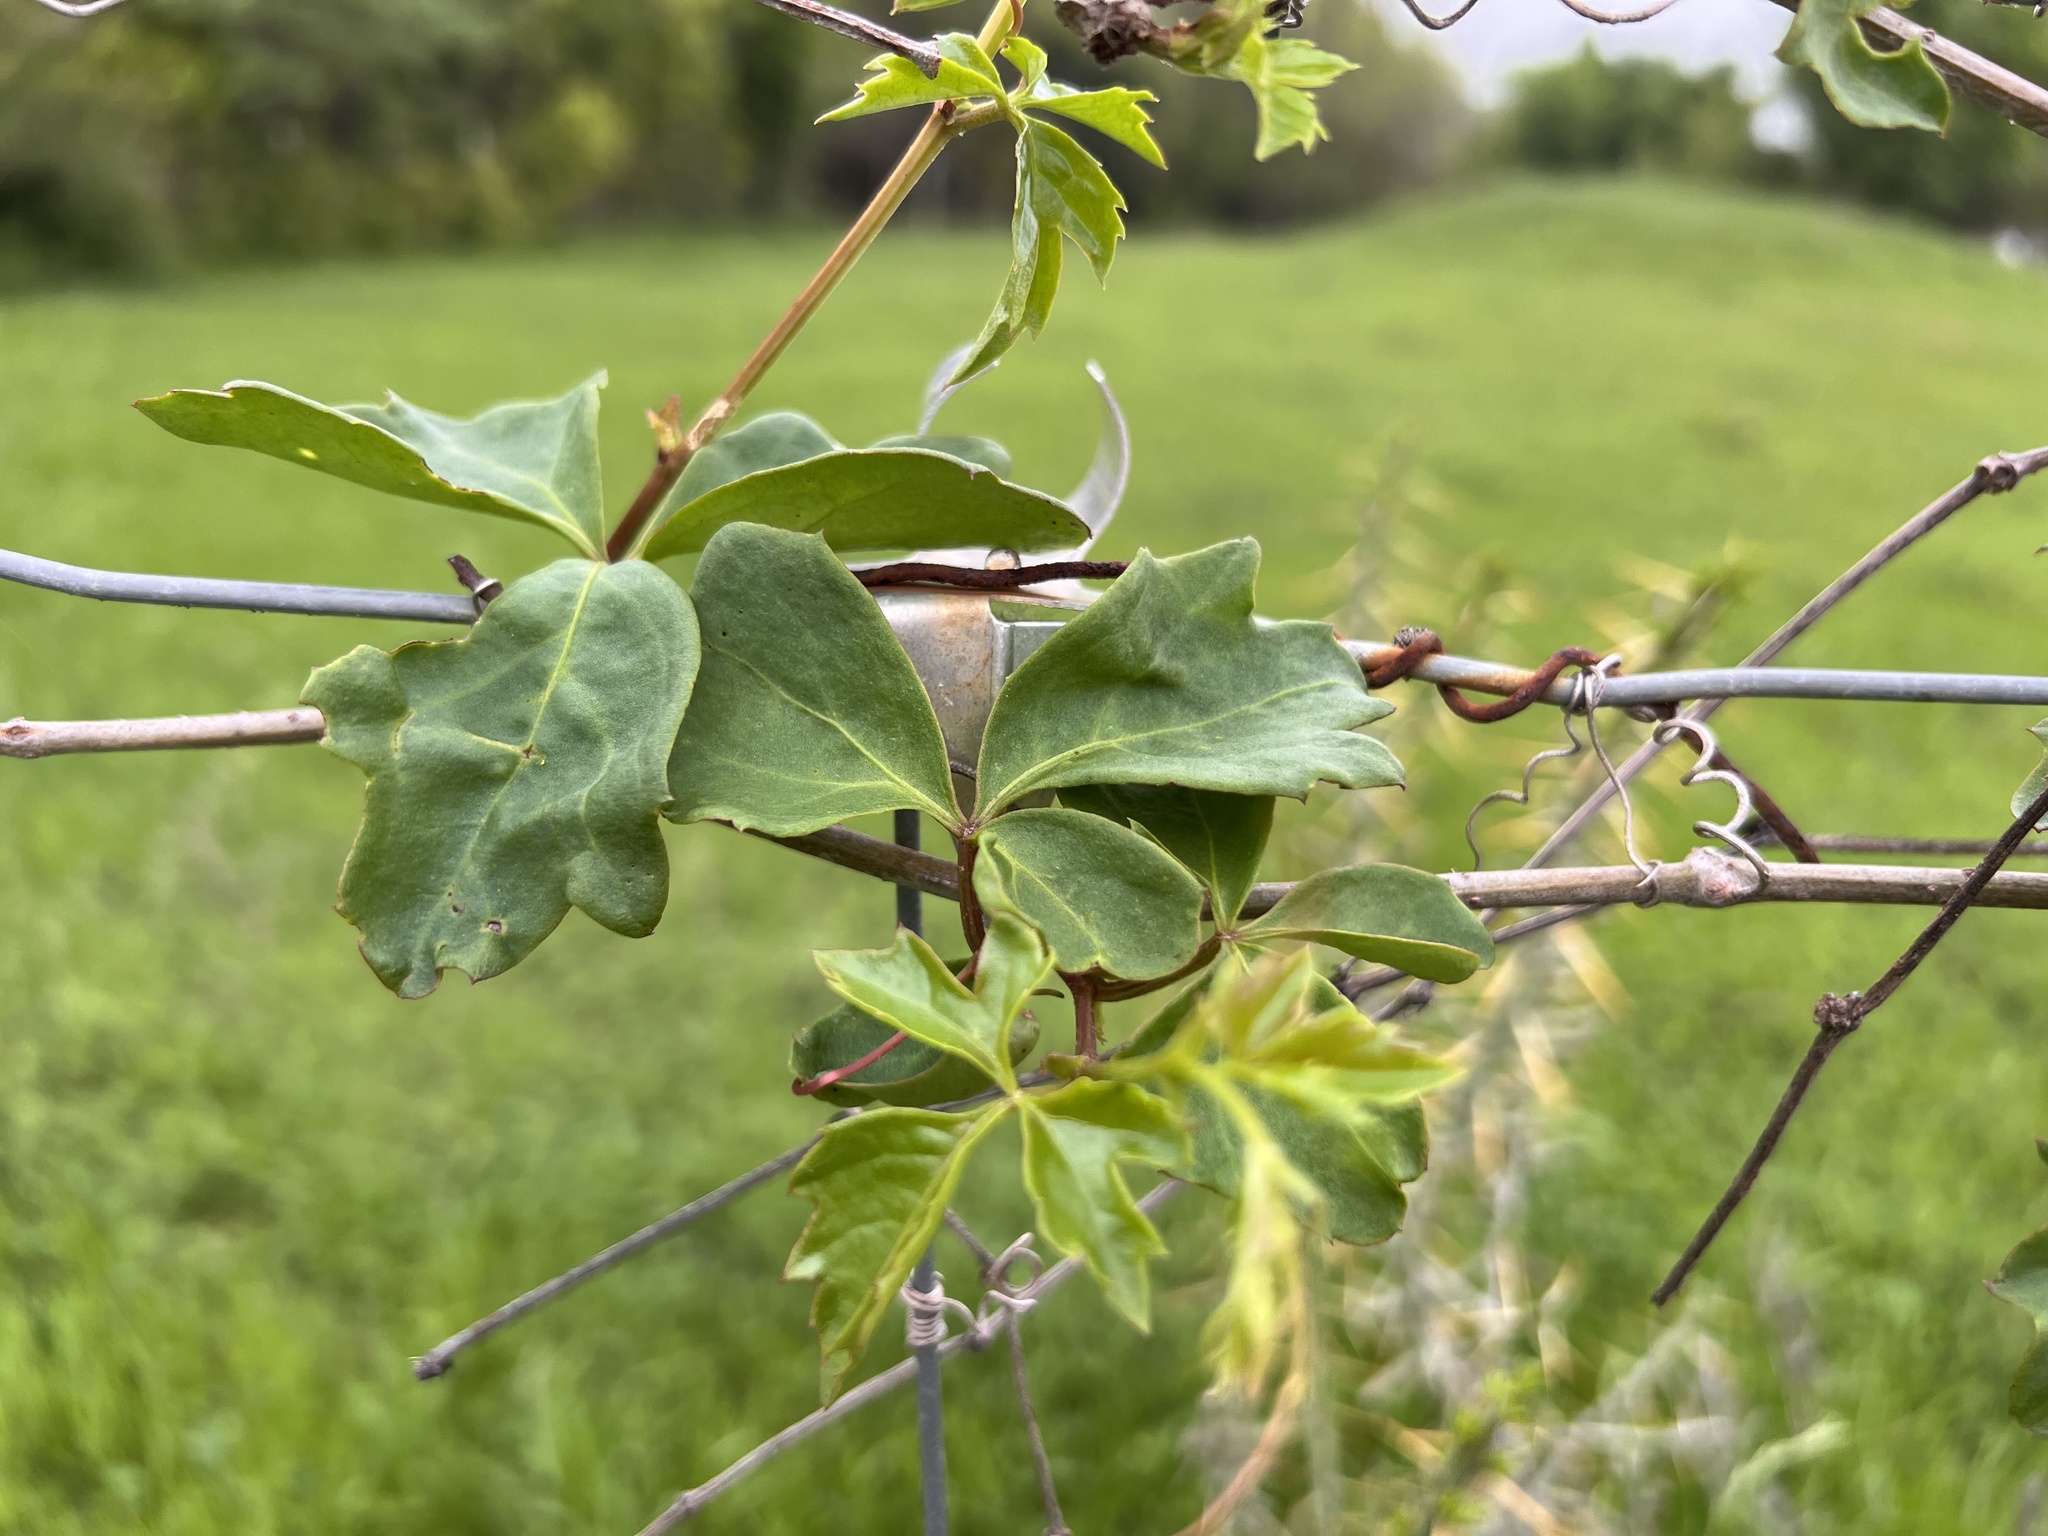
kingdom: Plantae
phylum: Tracheophyta
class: Magnoliopsida
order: Vitales
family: Vitaceae
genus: Cissus
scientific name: Cissus trifoliata
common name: Vine-sorrel
